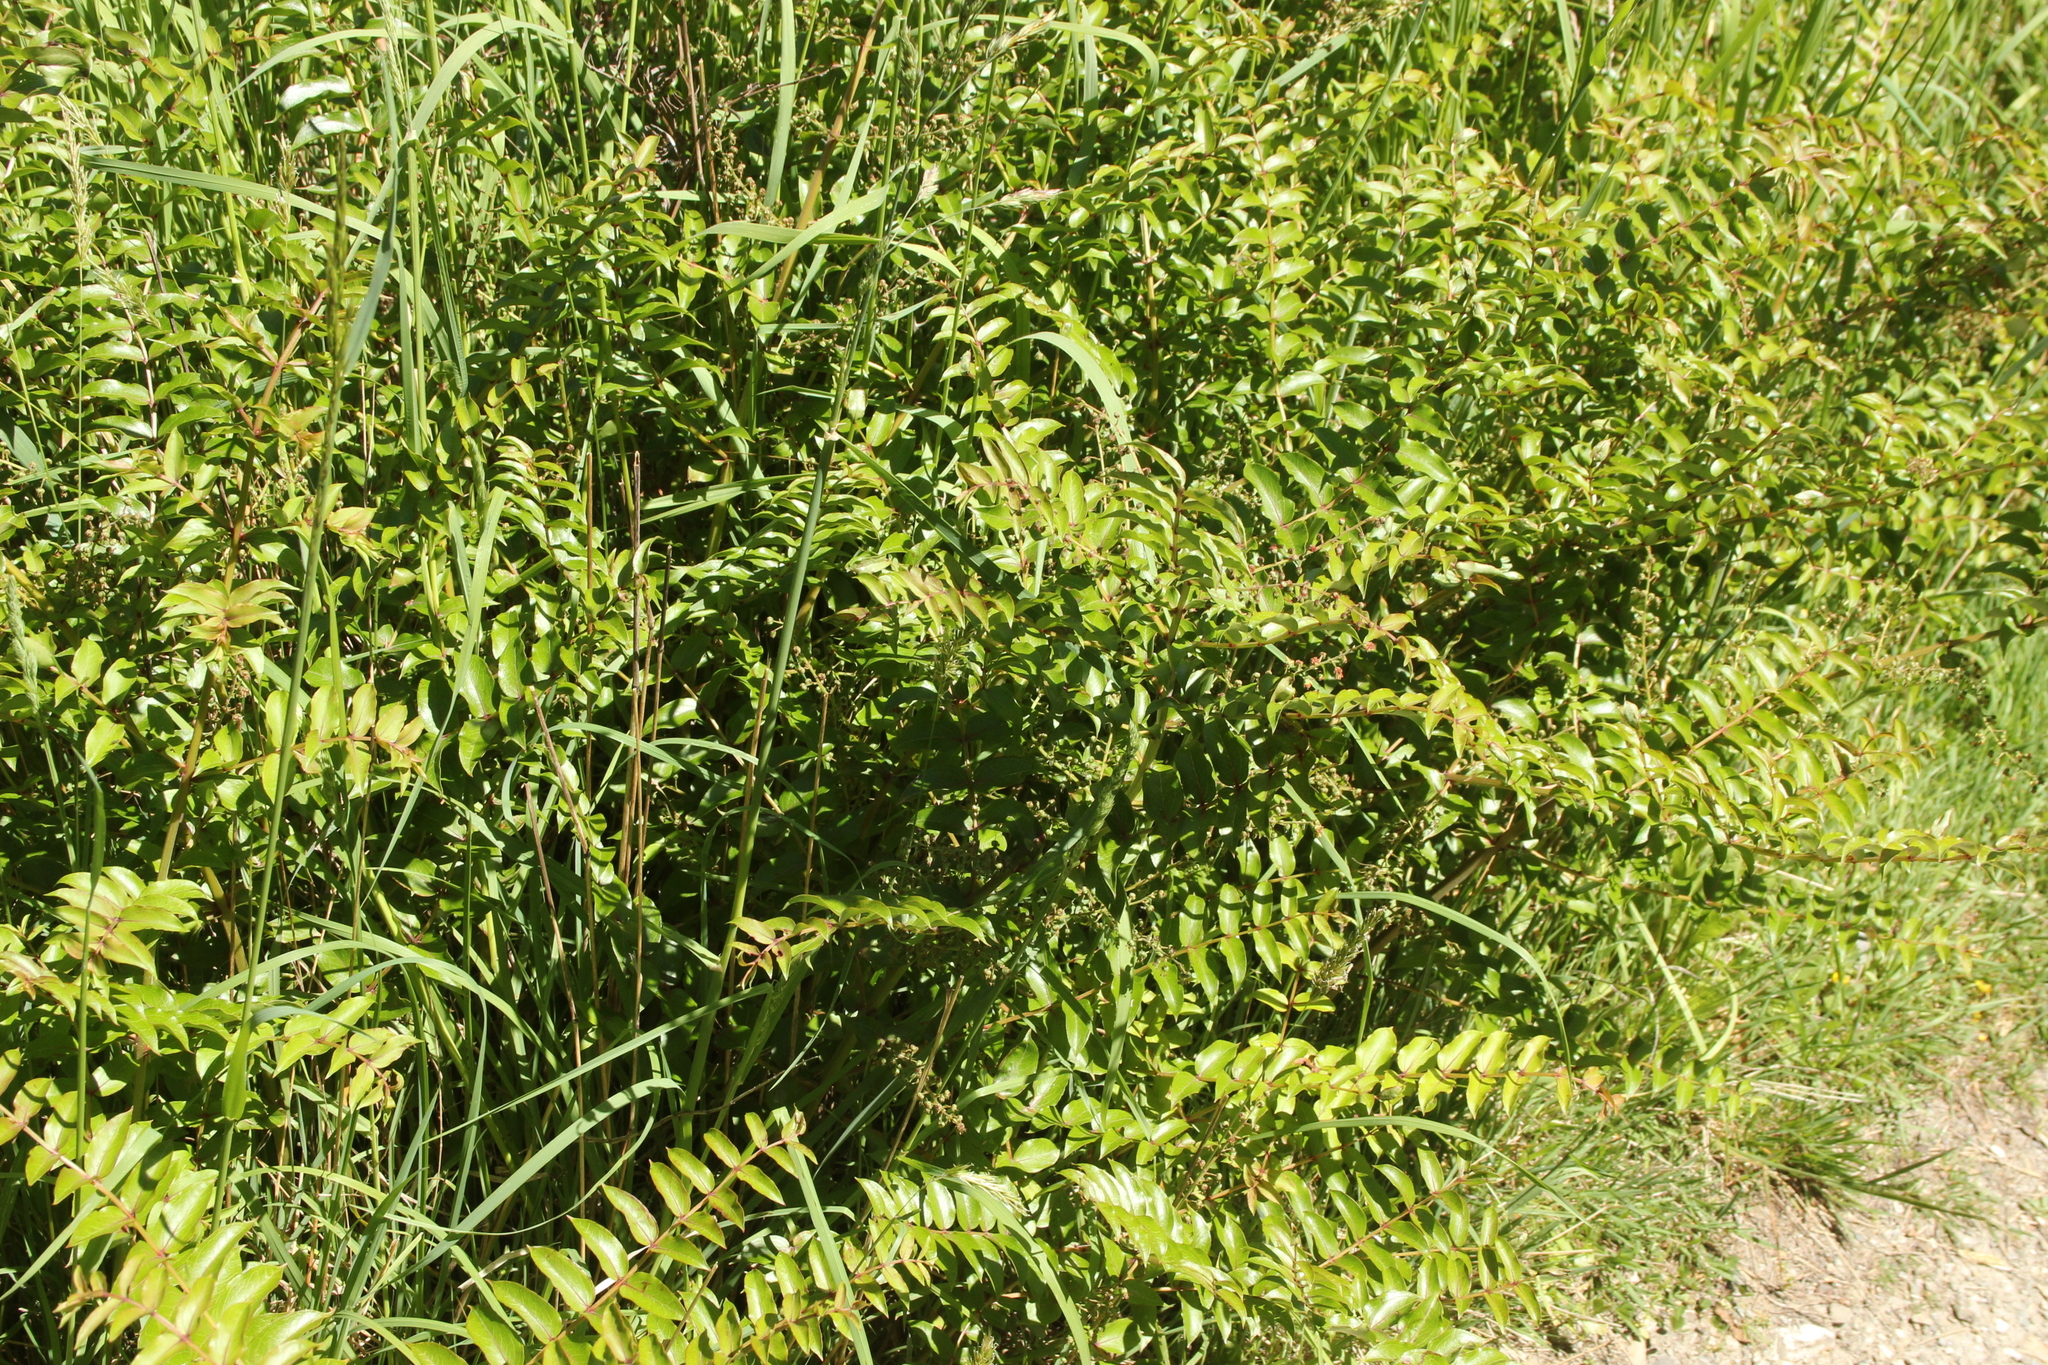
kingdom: Plantae
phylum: Tracheophyta
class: Magnoliopsida
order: Cucurbitales
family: Coriariaceae
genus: Coriaria
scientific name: Coriaria sarmentosa
